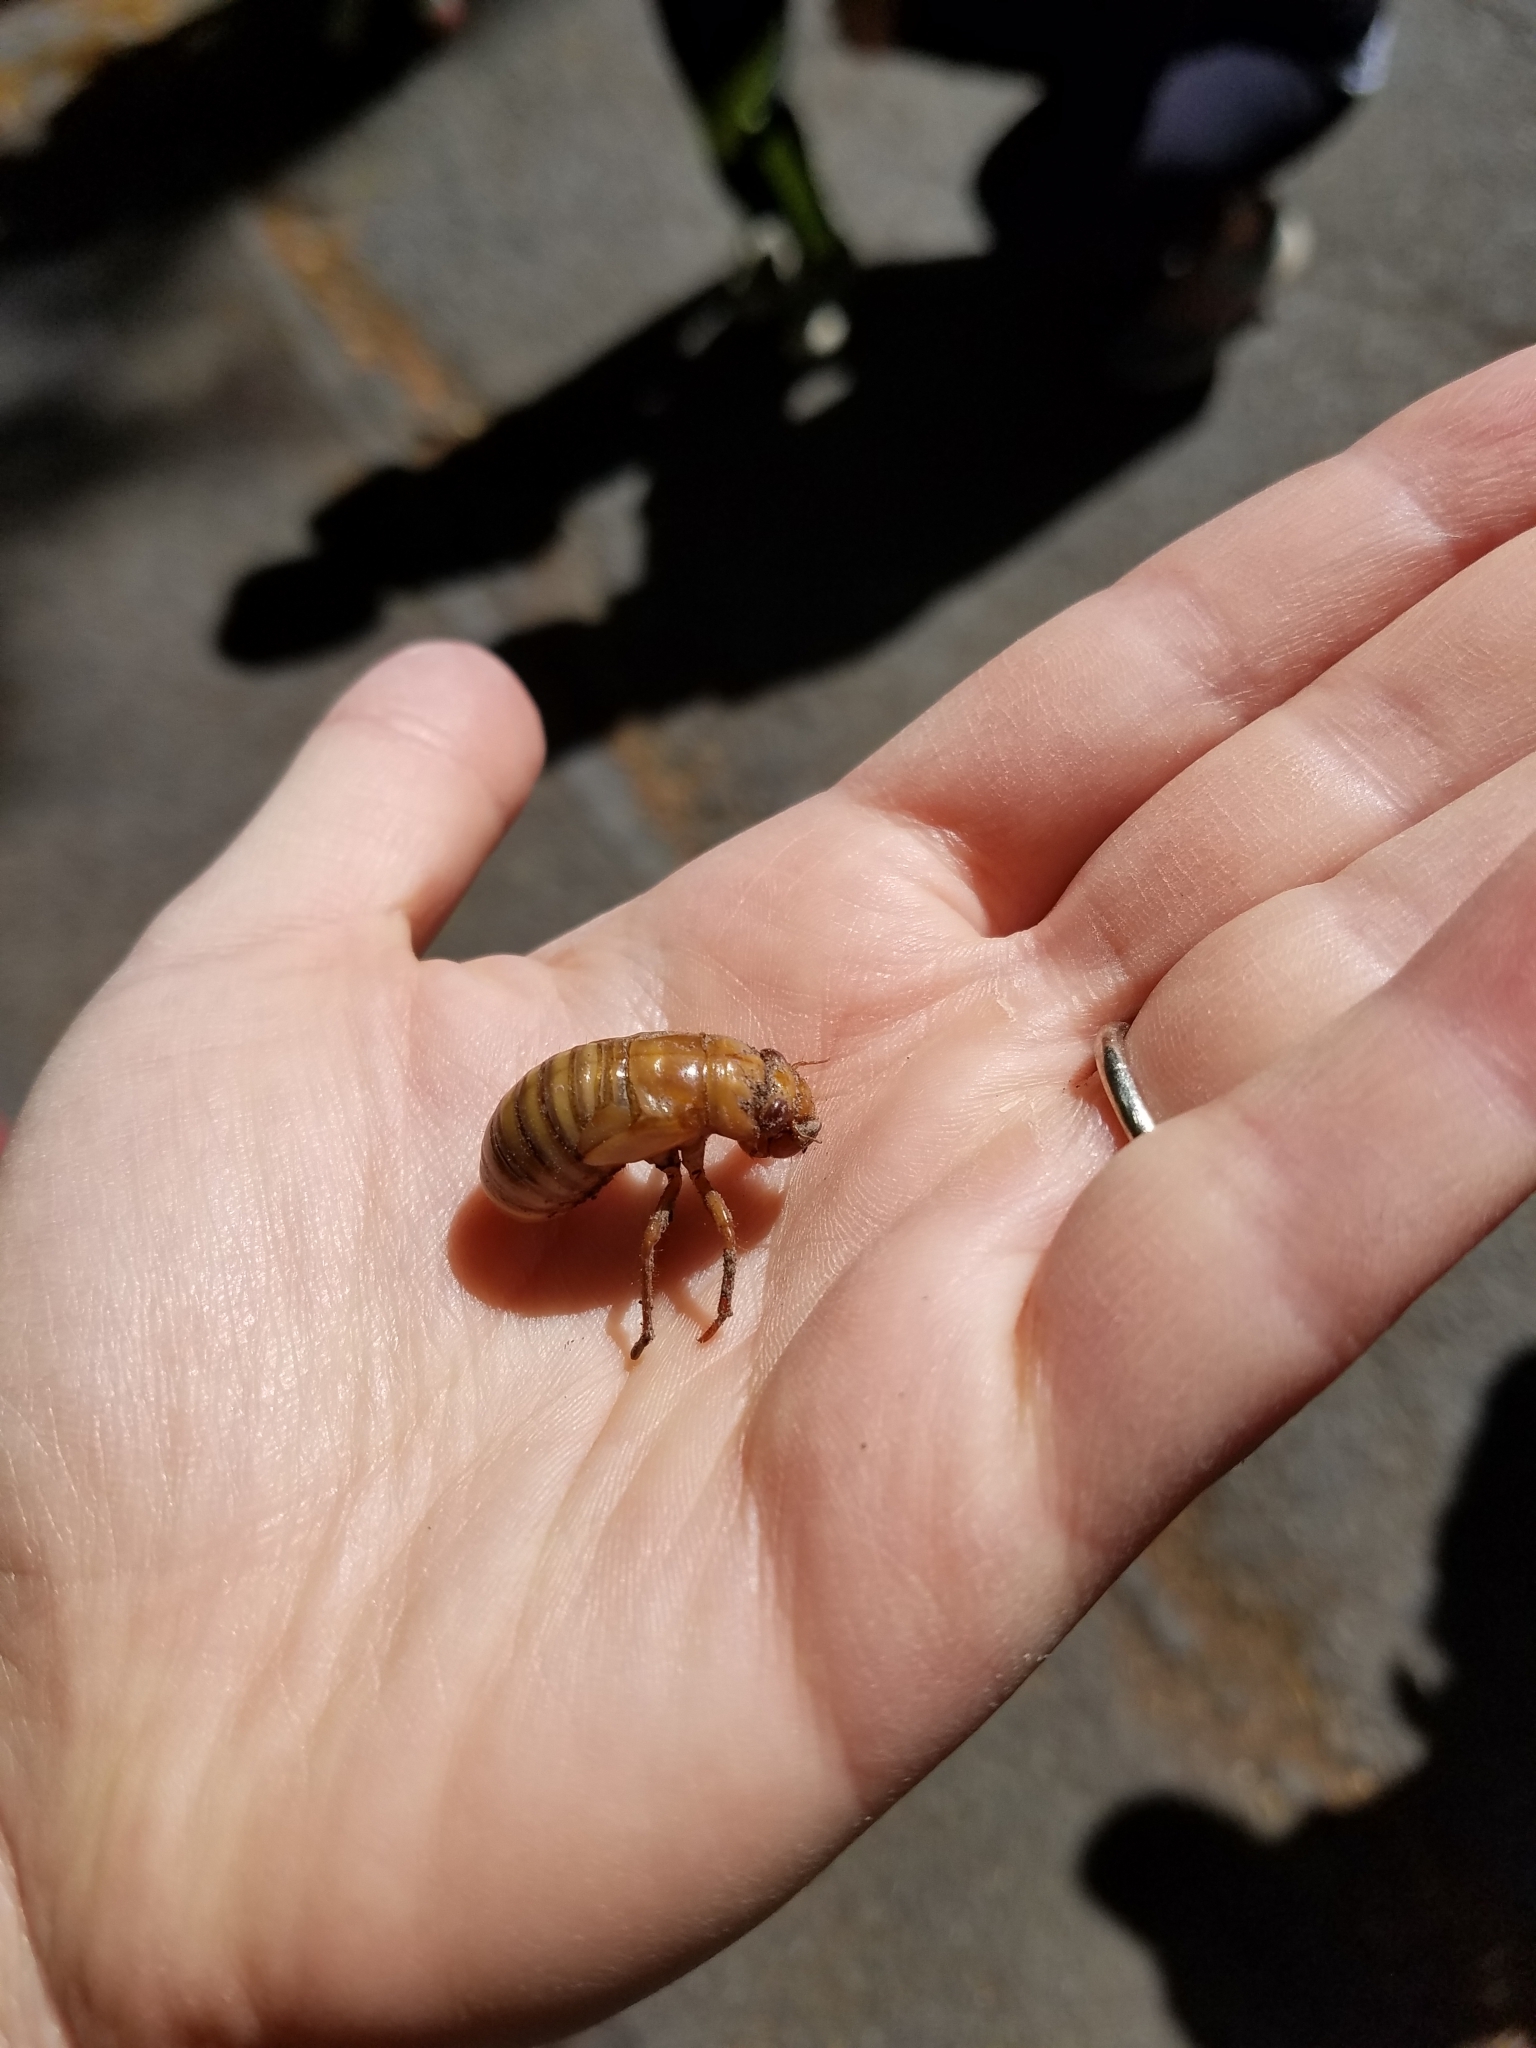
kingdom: Animalia
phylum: Arthropoda
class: Insecta
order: Hemiptera
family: Cicadidae
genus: Magicicada
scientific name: Magicicada
